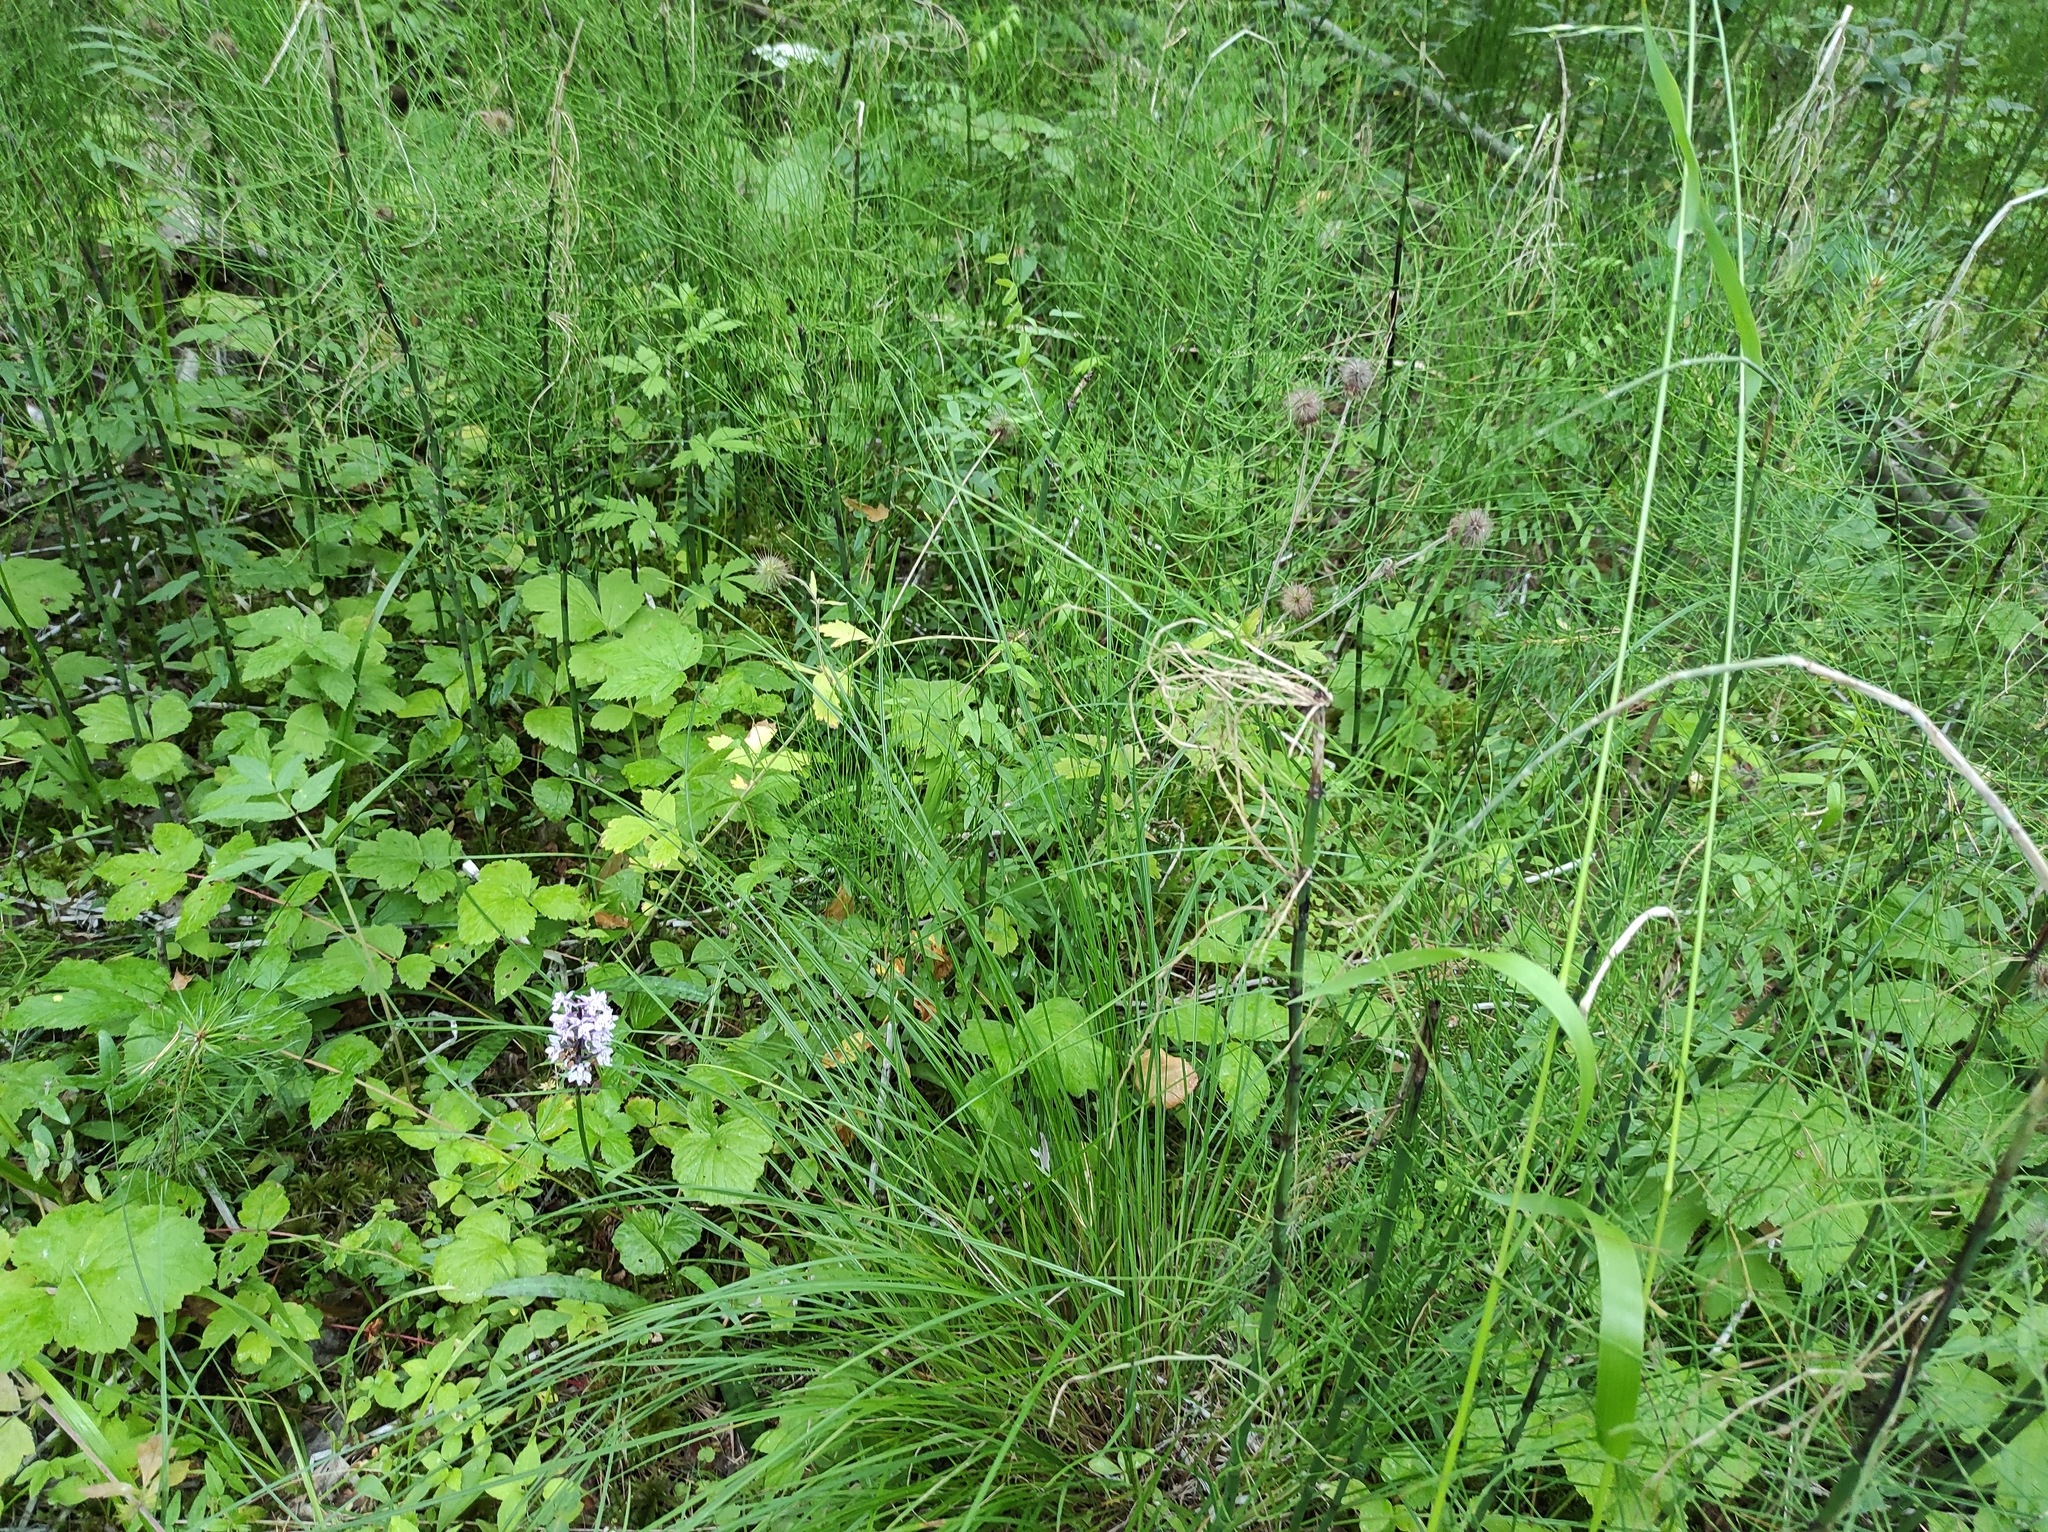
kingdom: Plantae
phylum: Tracheophyta
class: Polypodiopsida
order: Equisetales
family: Equisetaceae
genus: Equisetum
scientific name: Equisetum fluviatile
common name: Water horsetail
